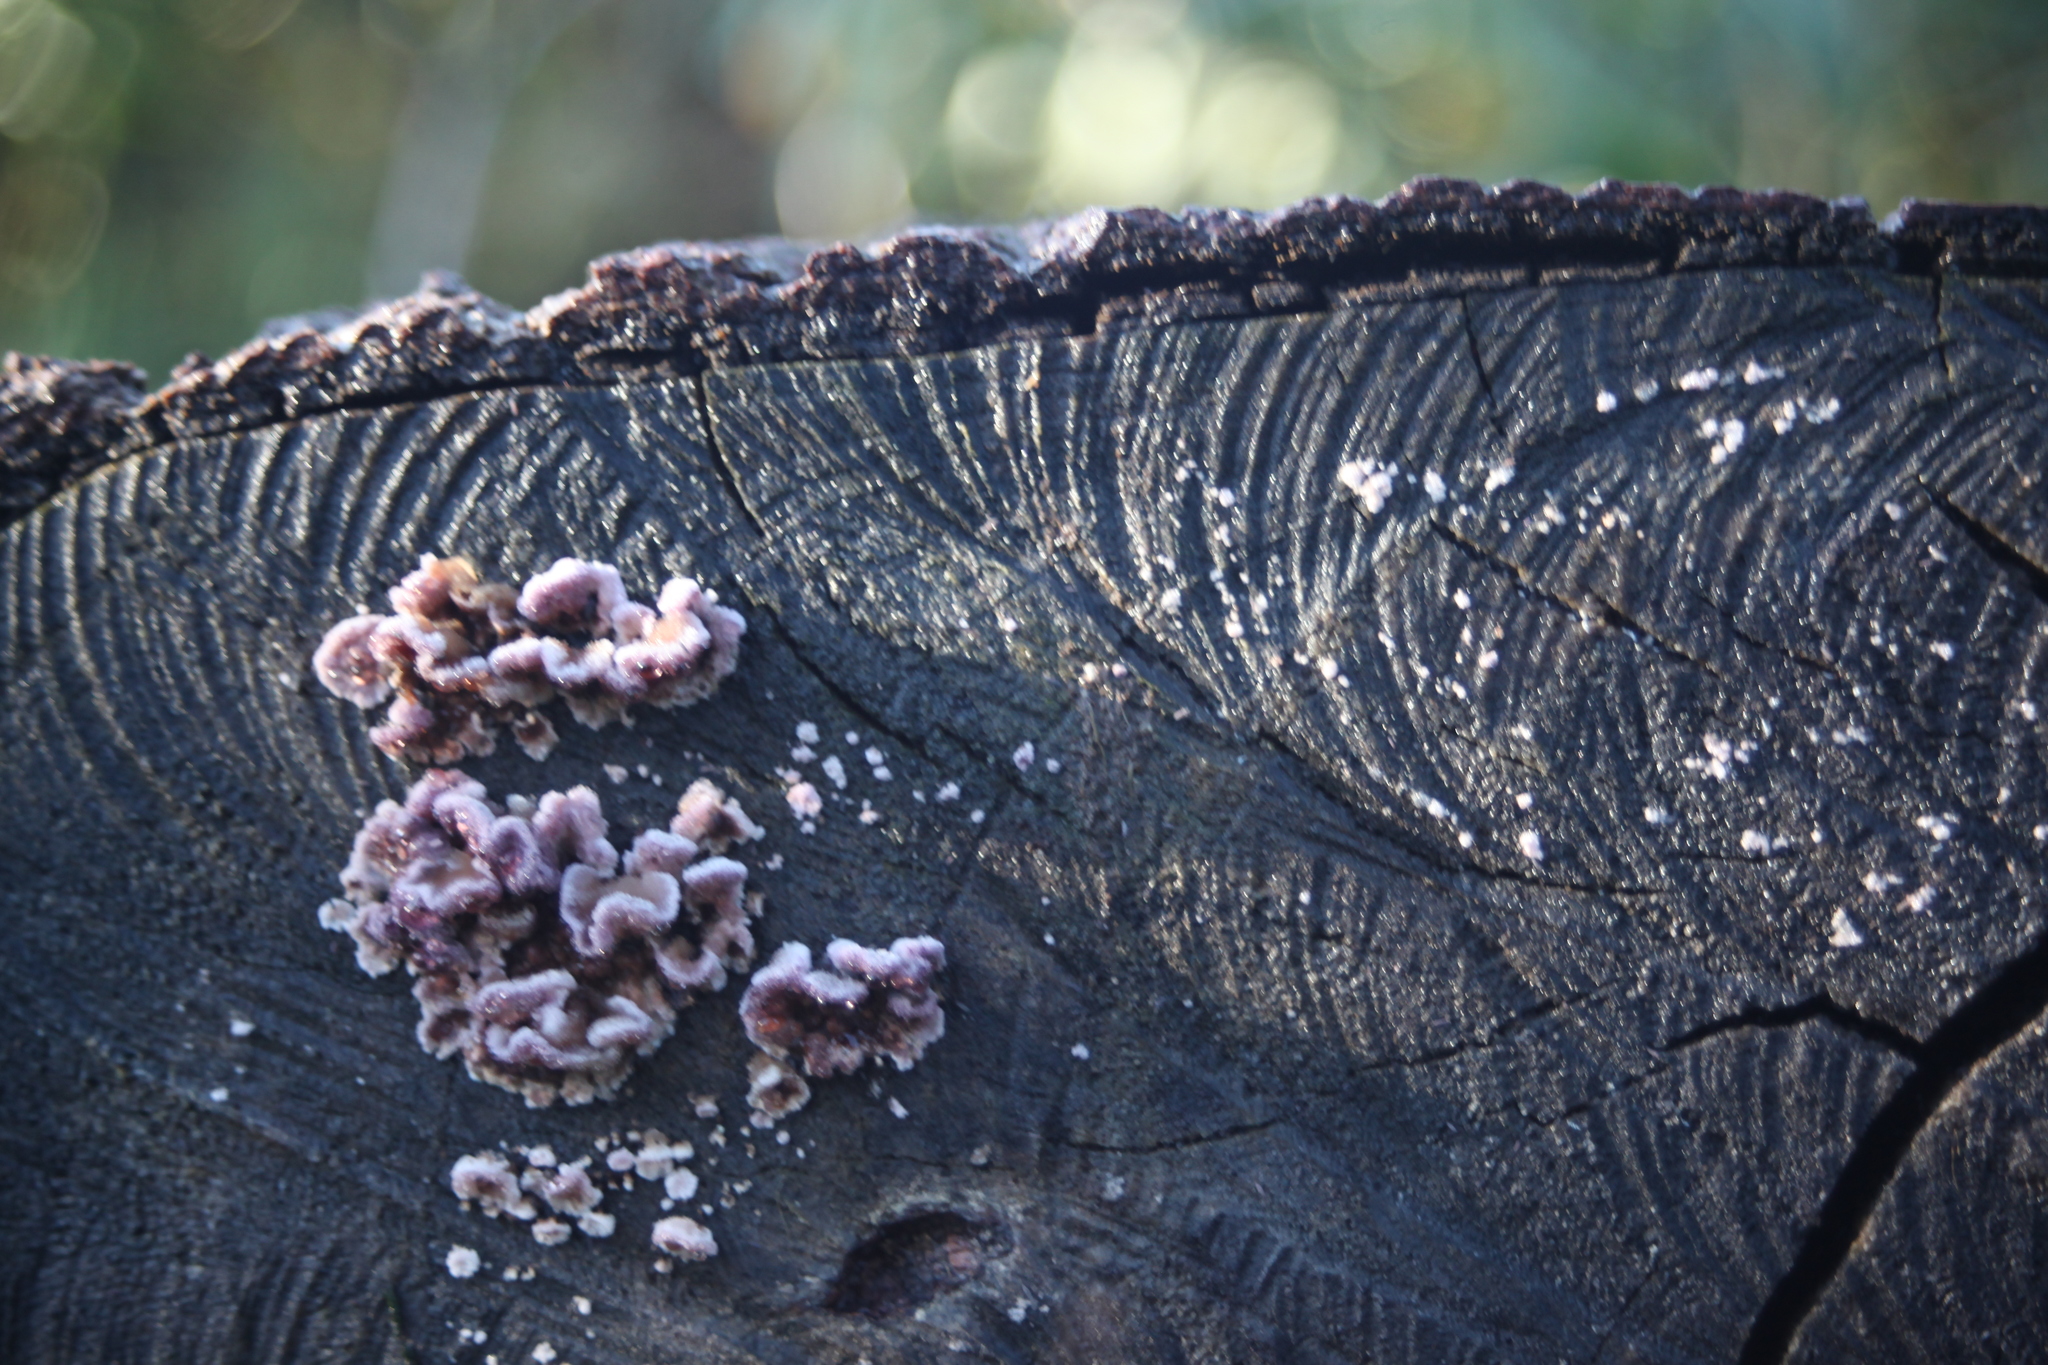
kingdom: Fungi
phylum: Basidiomycota
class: Agaricomycetes
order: Agaricales
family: Cyphellaceae
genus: Chondrostereum
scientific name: Chondrostereum purpureum
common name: Silver leaf disease
